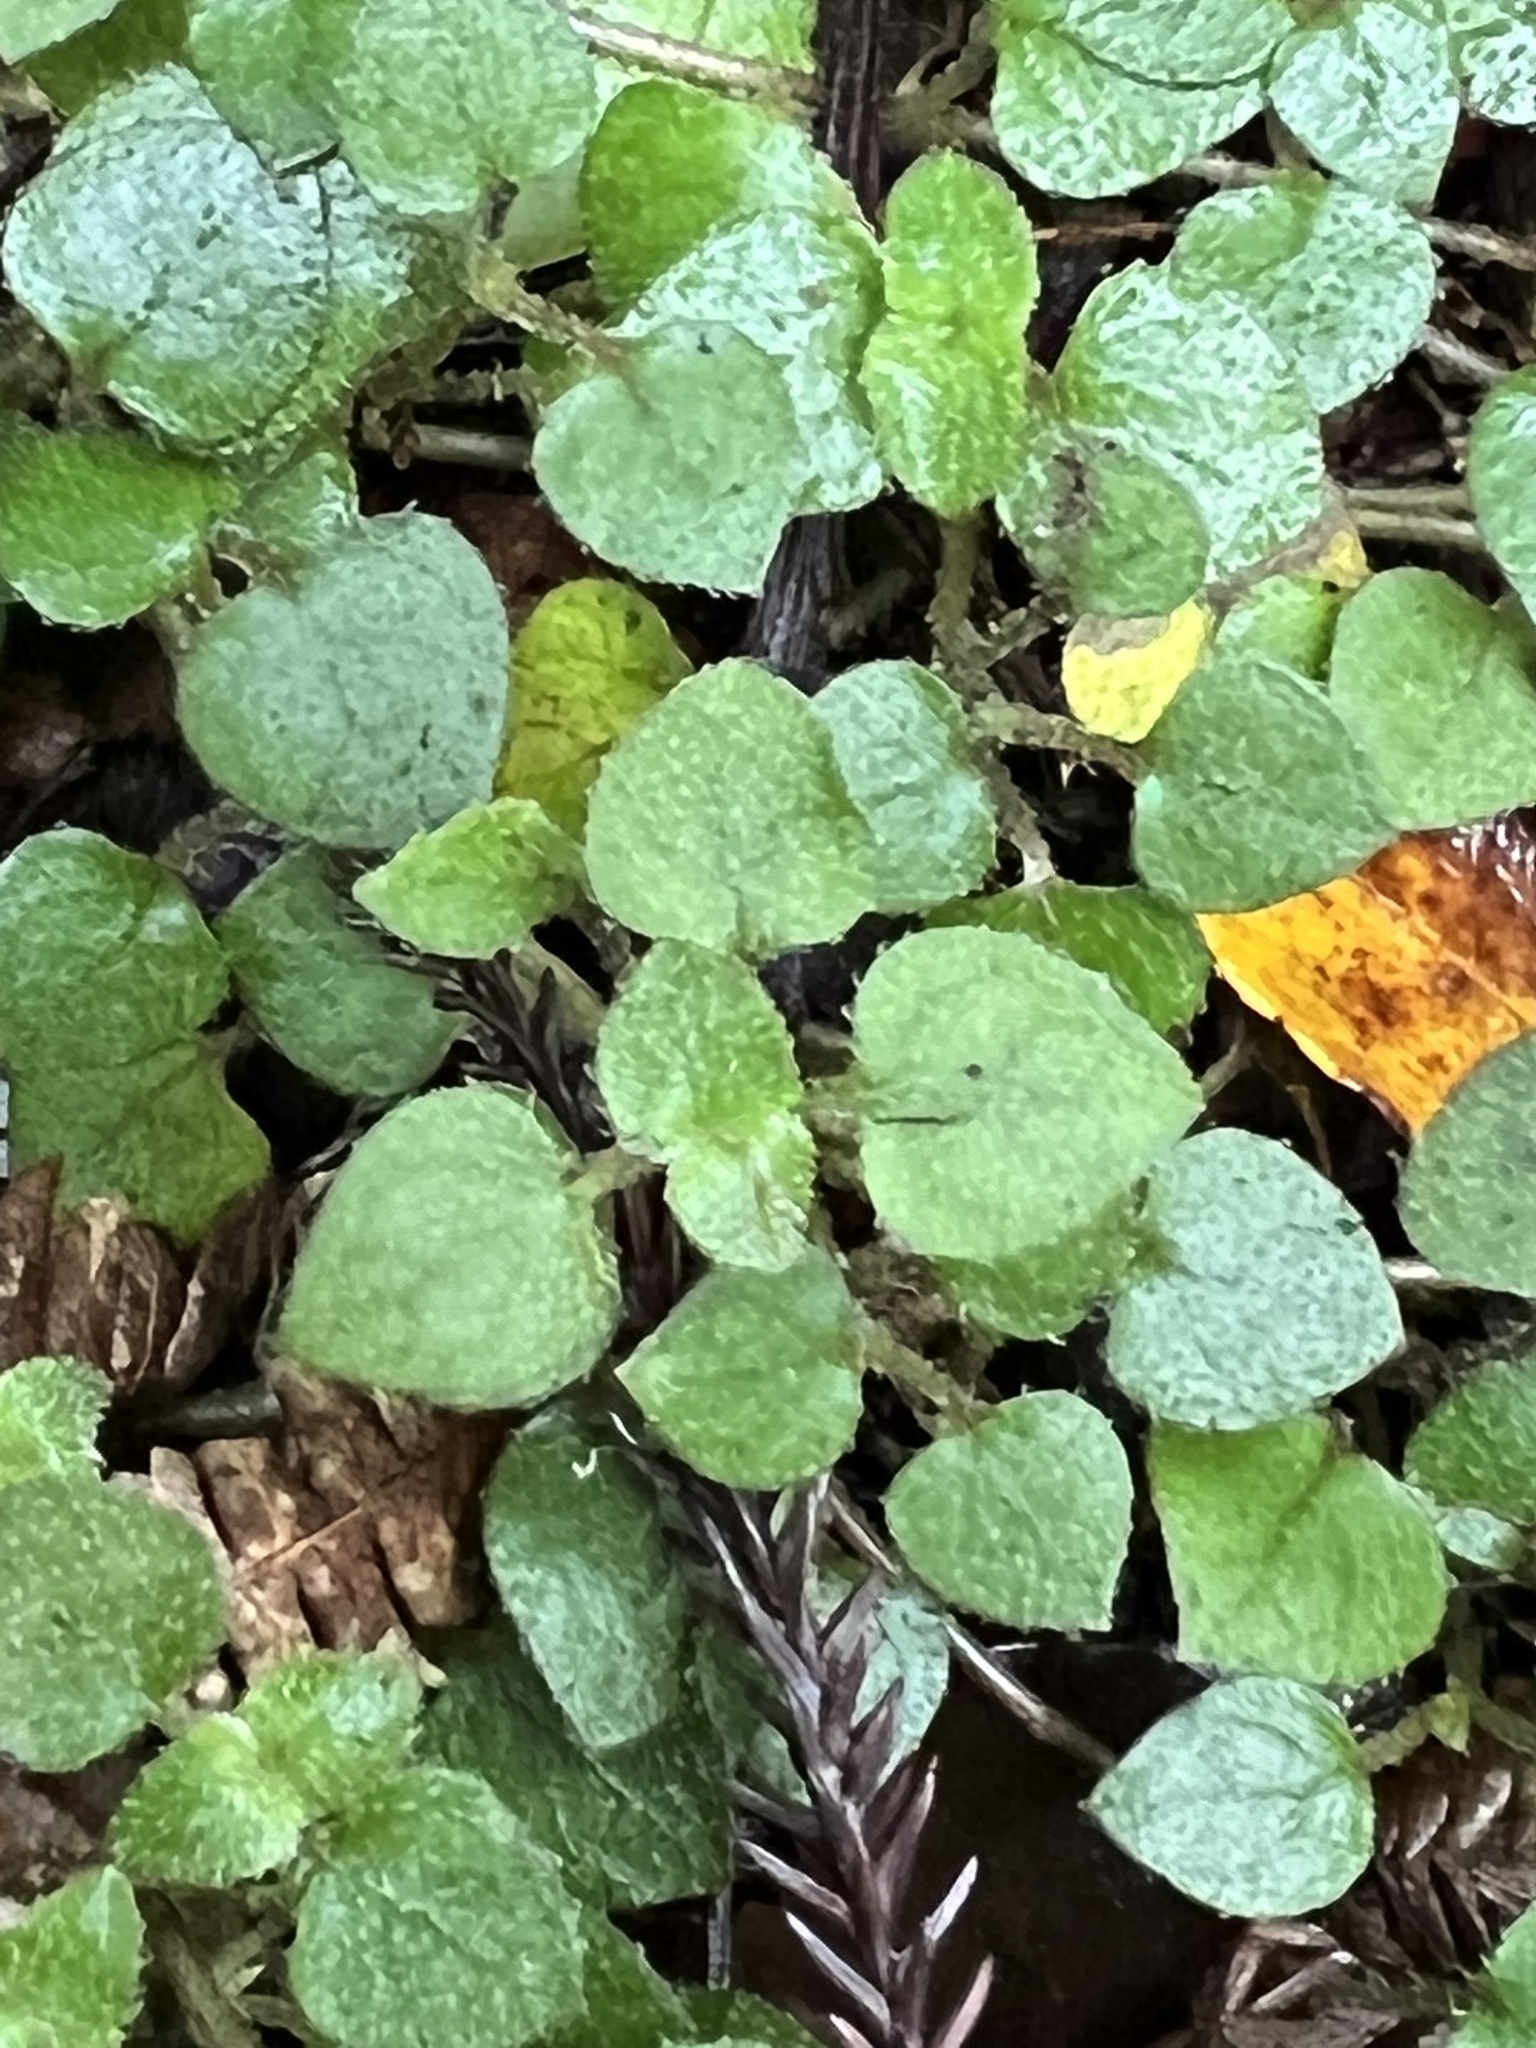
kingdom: Plantae
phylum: Tracheophyta
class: Magnoliopsida
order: Gentianales
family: Rubiaceae
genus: Nertera
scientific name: Nertera dichondrifolia
